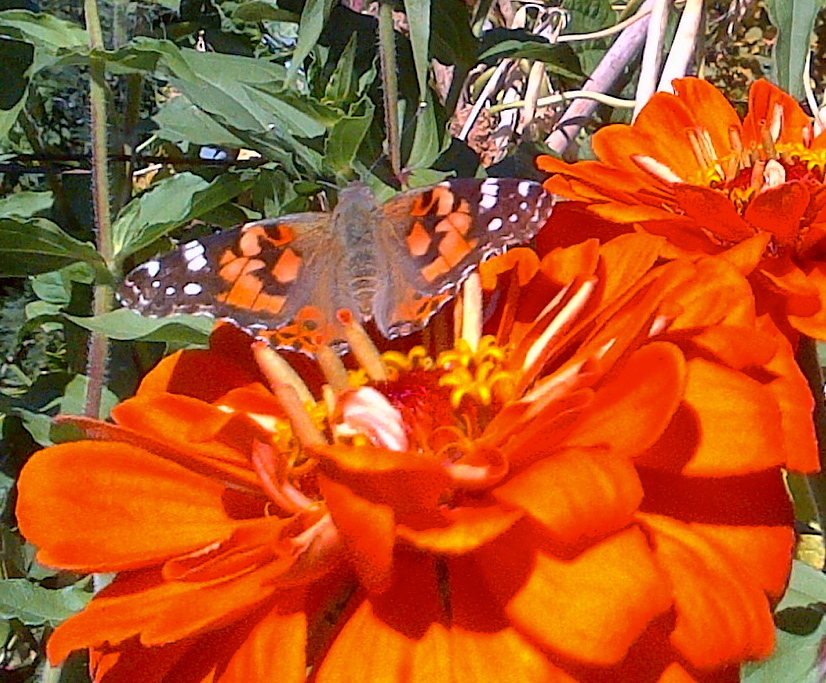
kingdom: Animalia
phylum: Arthropoda
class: Insecta
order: Lepidoptera
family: Nymphalidae
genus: Vanessa
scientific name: Vanessa cardui
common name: Painted lady
